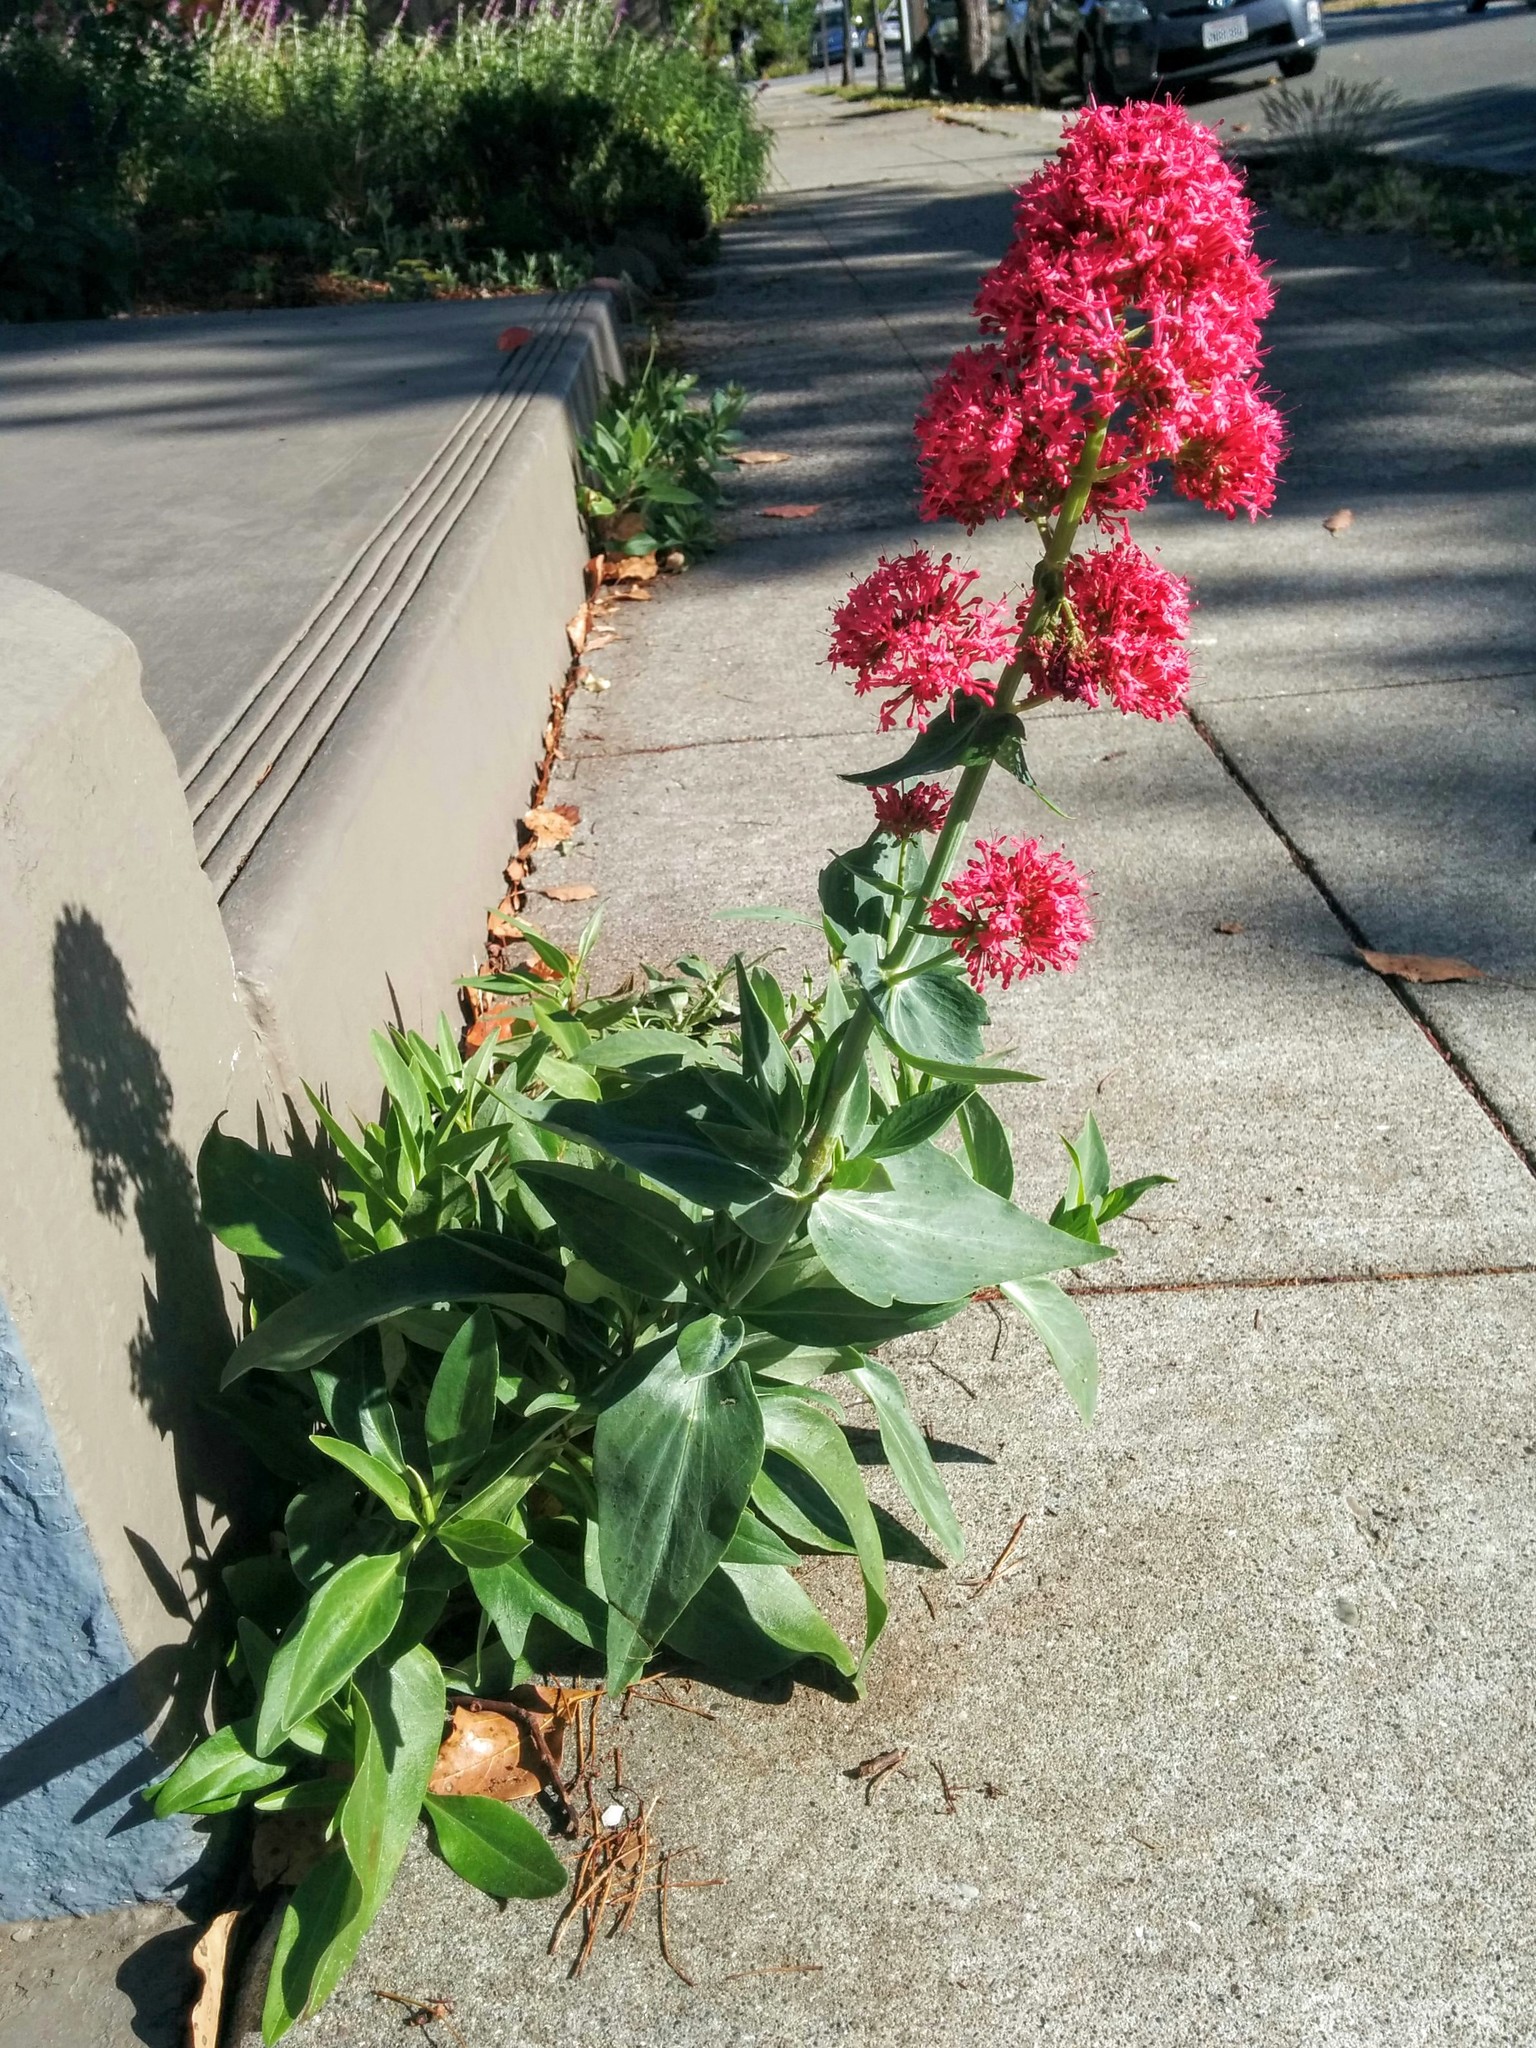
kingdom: Plantae
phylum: Tracheophyta
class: Magnoliopsida
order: Dipsacales
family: Caprifoliaceae
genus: Centranthus
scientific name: Centranthus ruber
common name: Red valerian
